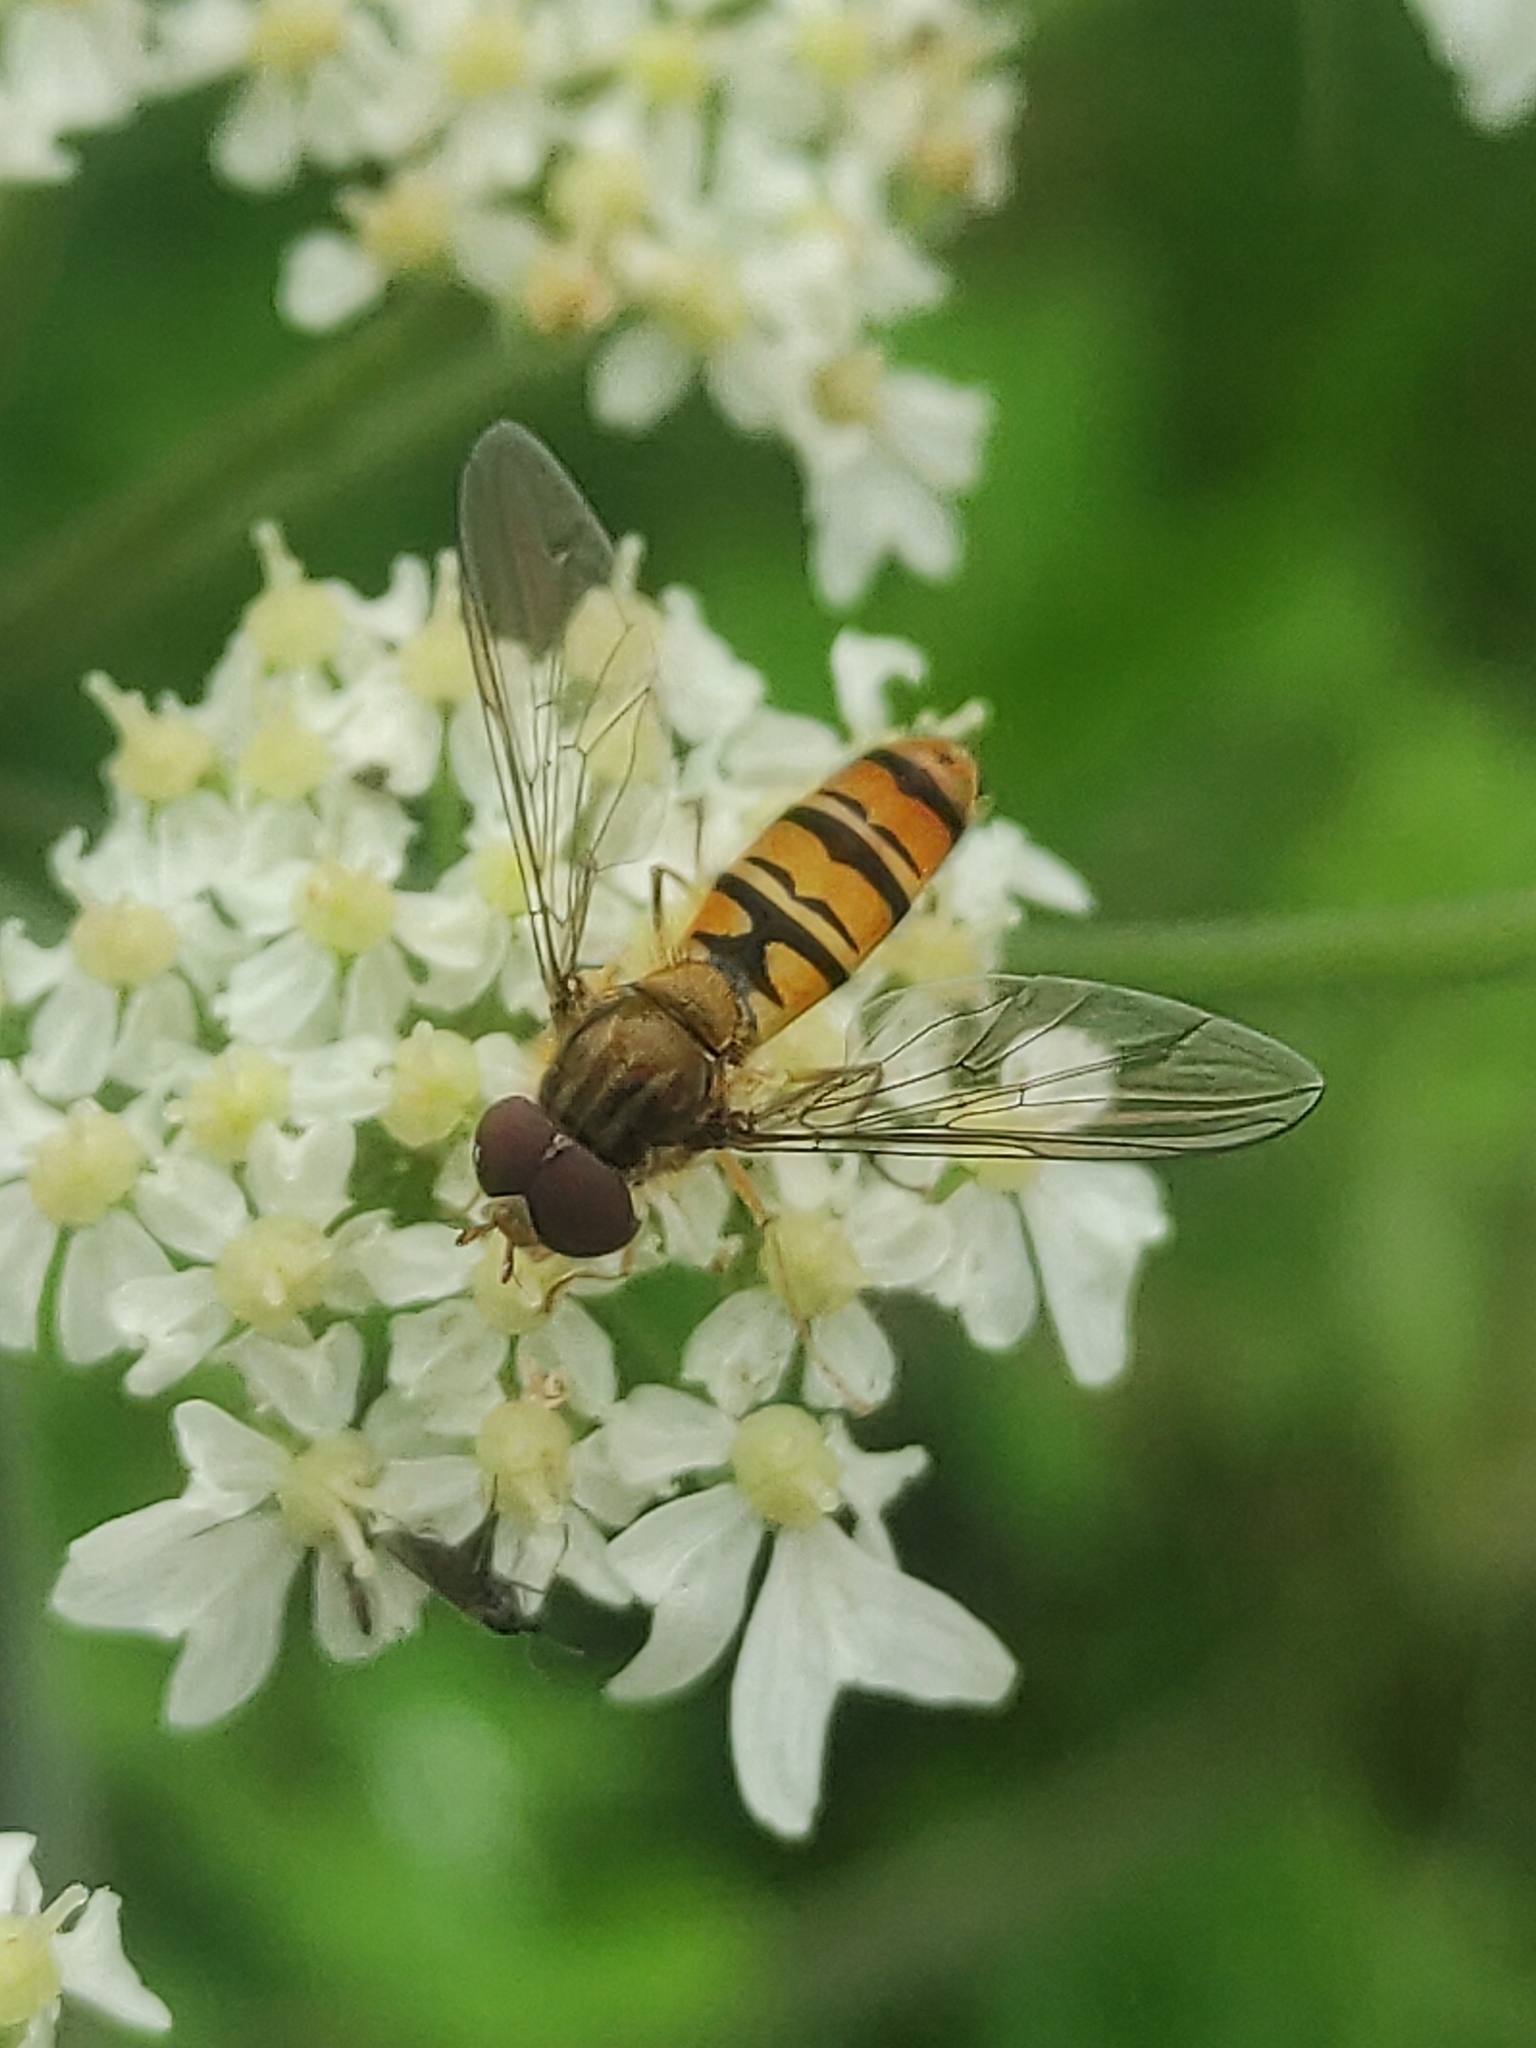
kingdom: Animalia
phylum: Arthropoda
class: Insecta
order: Diptera
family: Syrphidae
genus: Episyrphus
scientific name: Episyrphus balteatus
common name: Marmalade hoverfly
